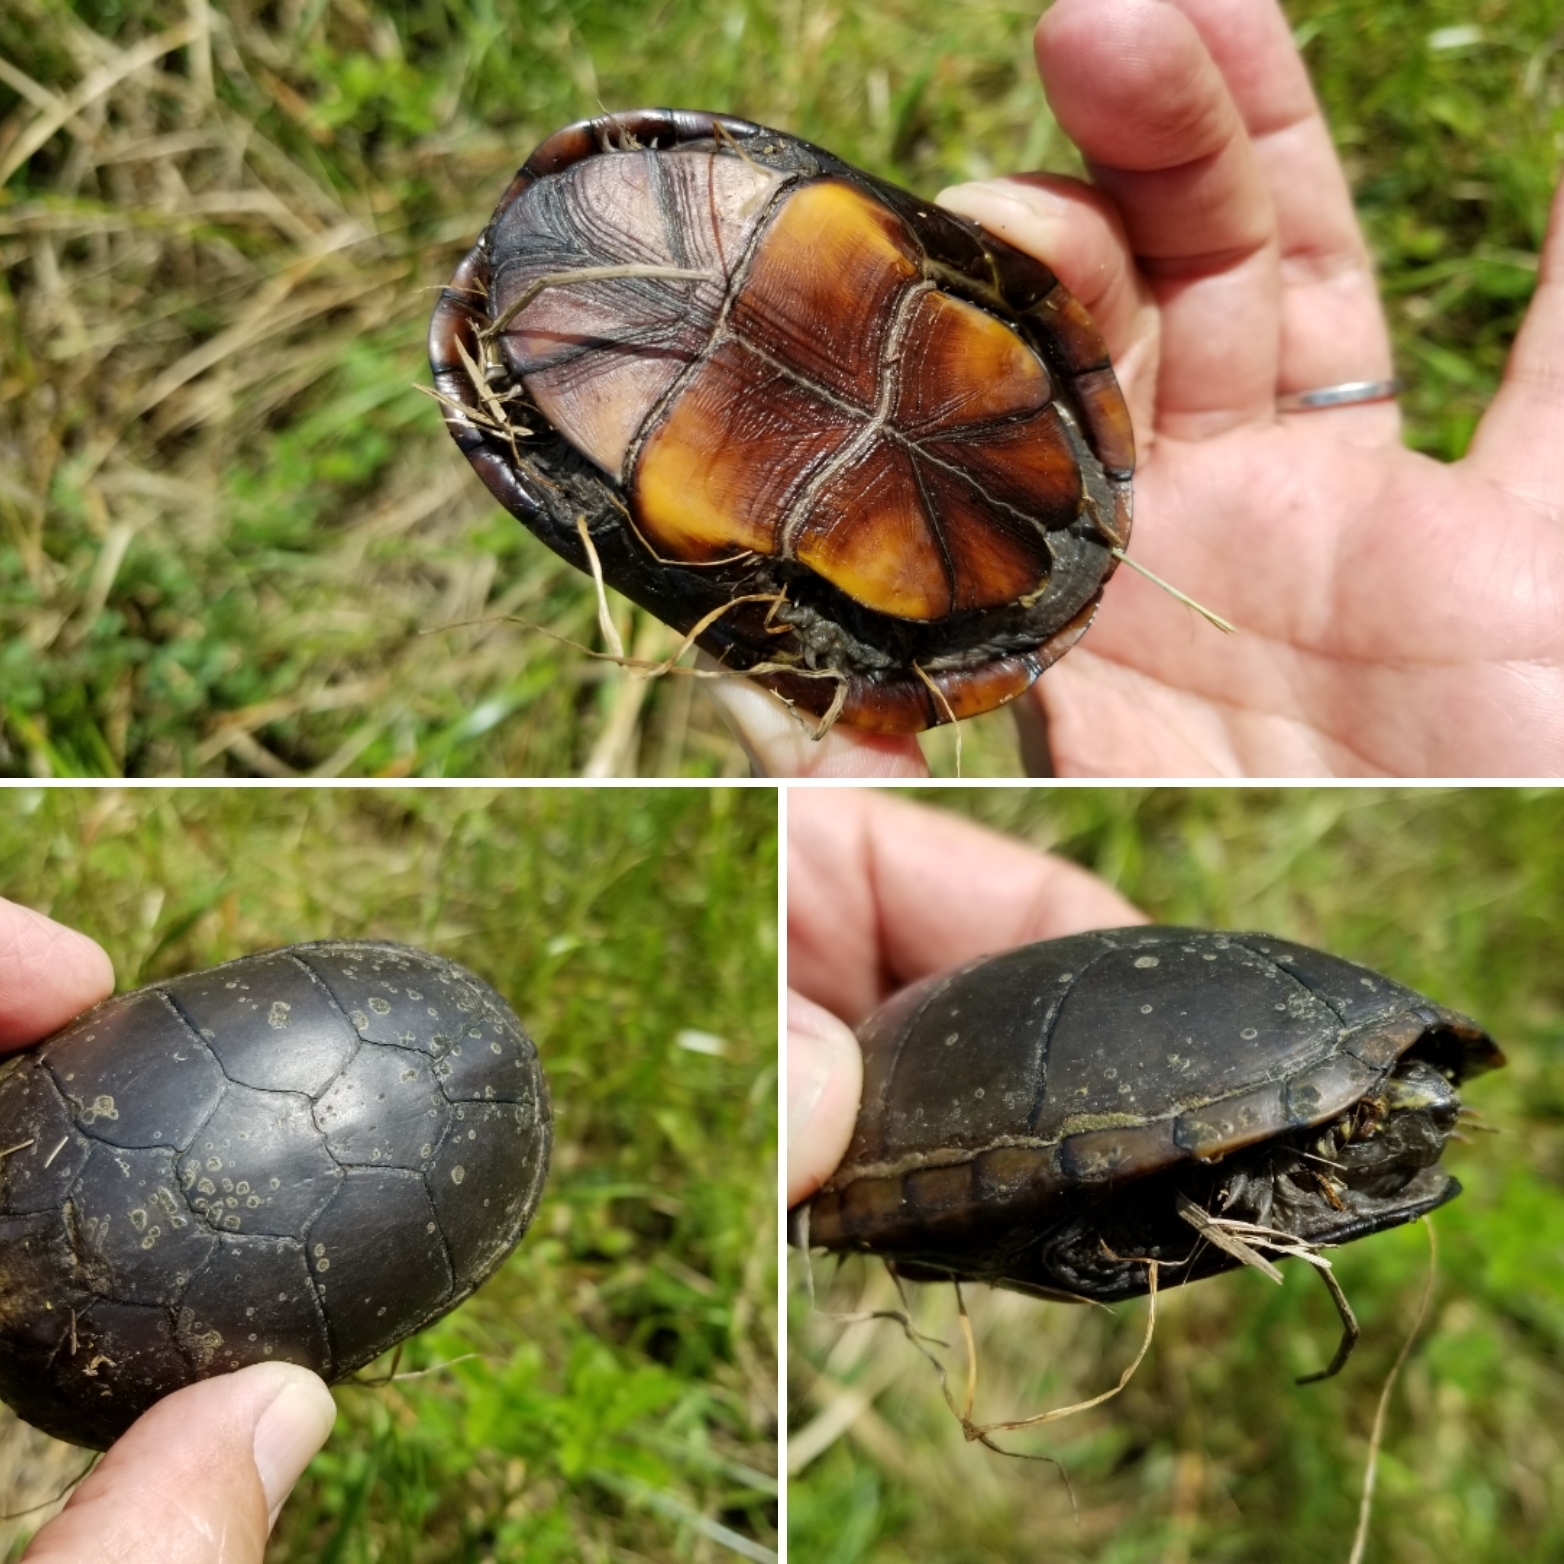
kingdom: Animalia
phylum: Chordata
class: Testudines
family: Kinosternidae
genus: Kinosternon
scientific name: Kinosternon subrubrum
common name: Eastern mud turtle
